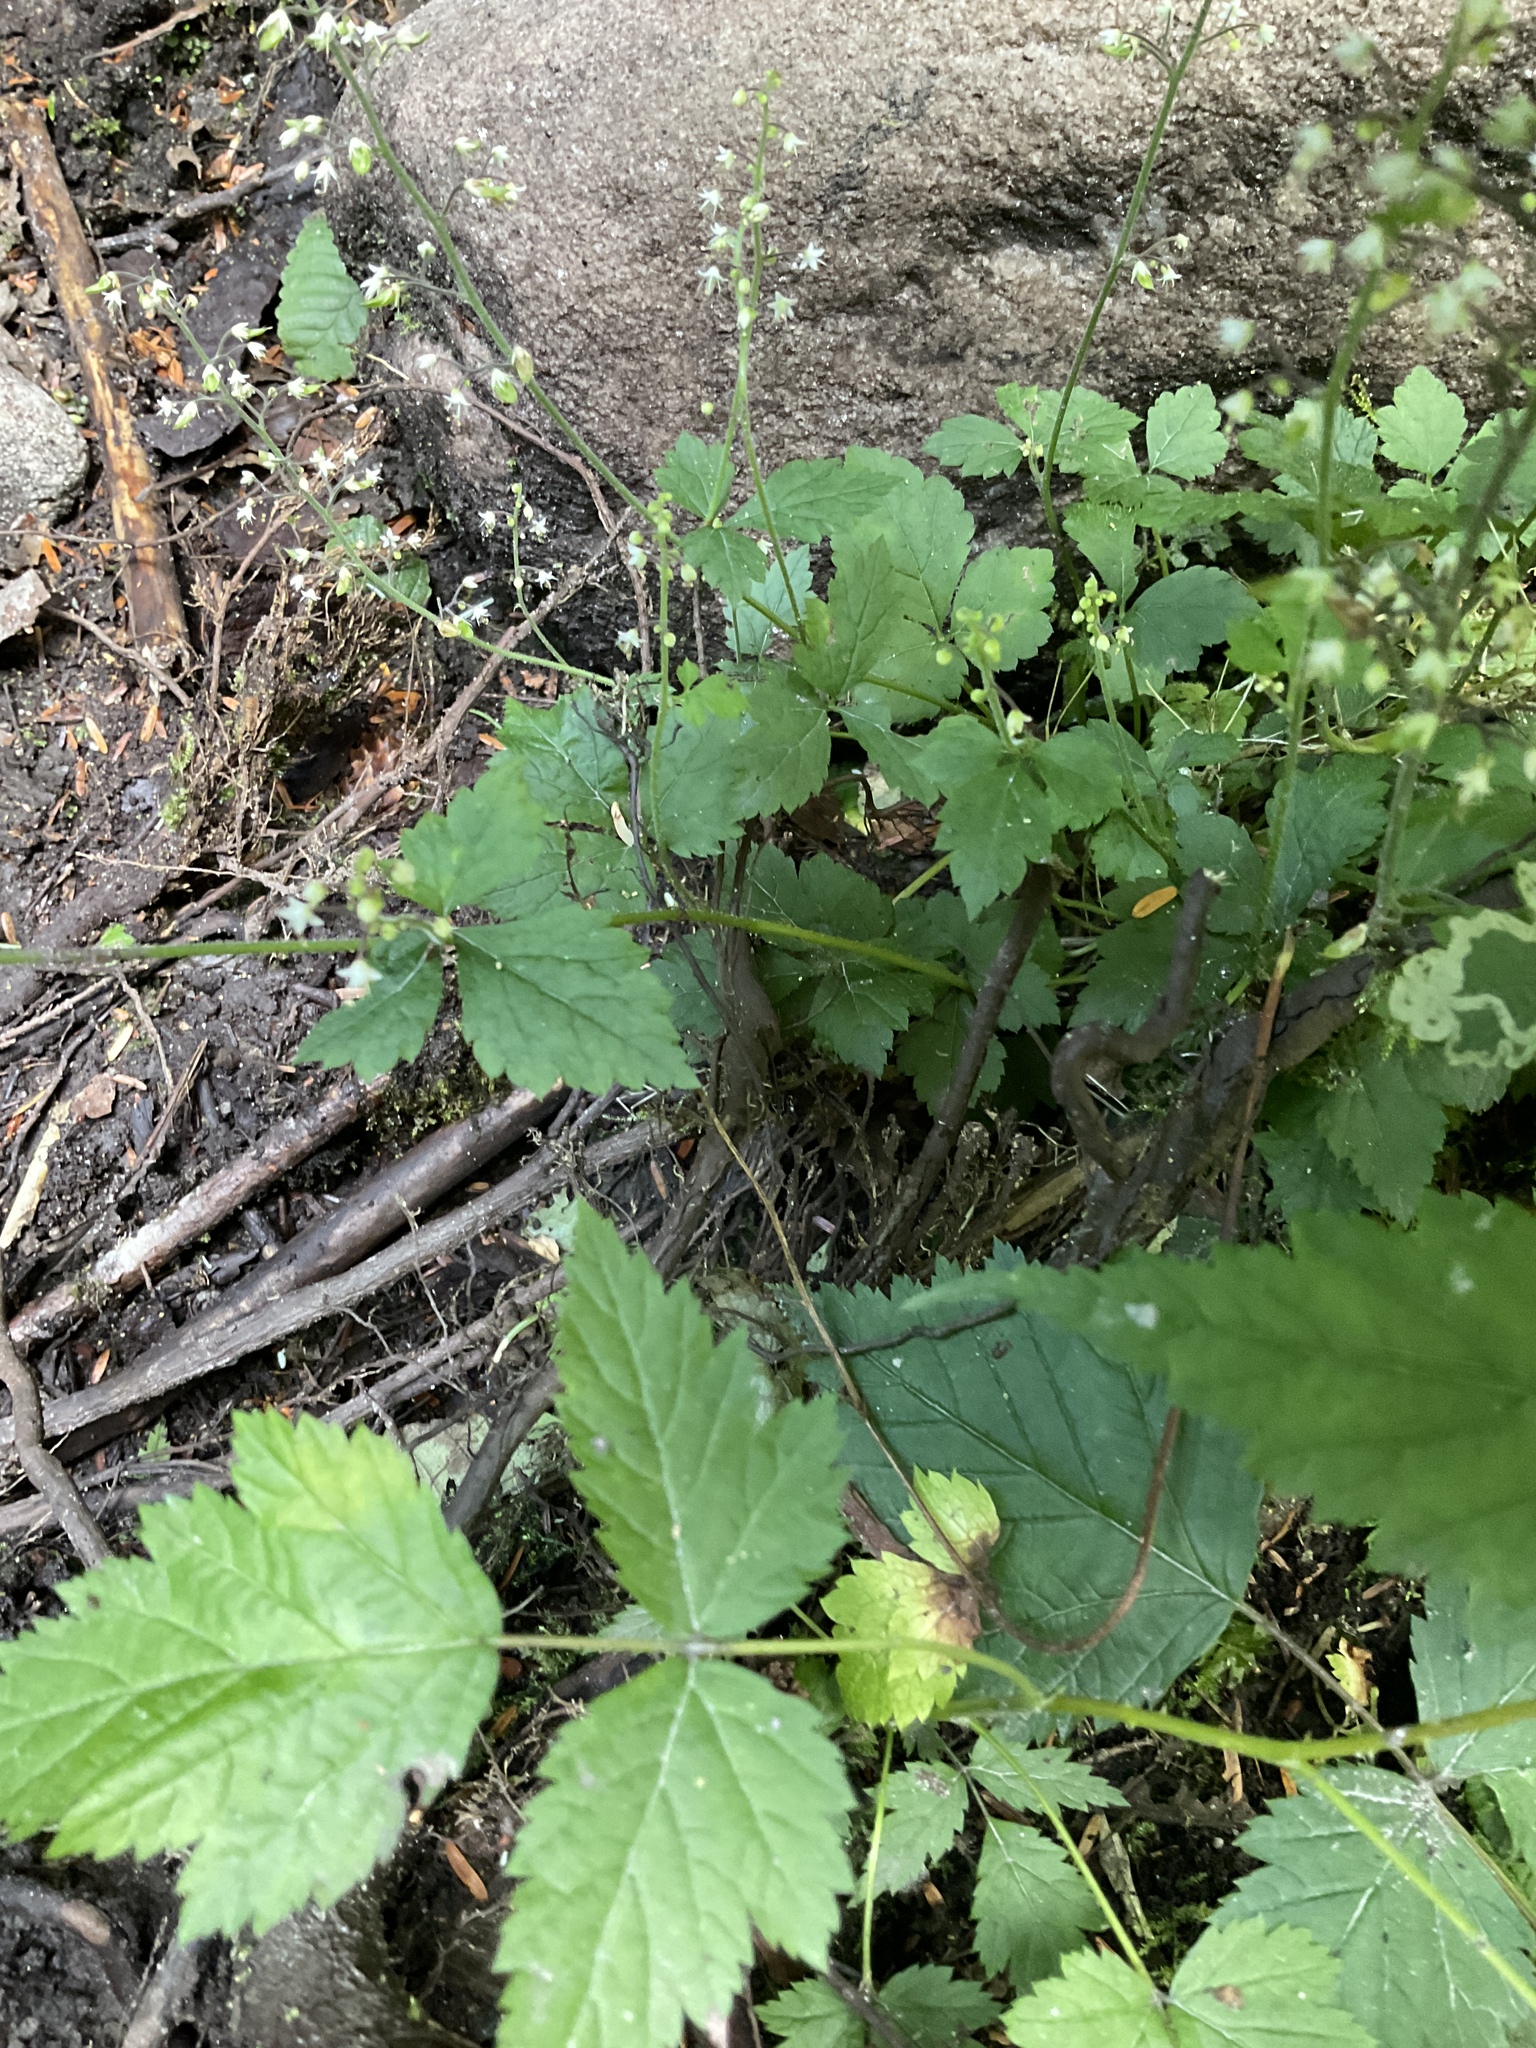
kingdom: Plantae
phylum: Tracheophyta
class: Magnoliopsida
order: Saxifragales
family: Saxifragaceae
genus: Tiarella
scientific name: Tiarella trifoliata
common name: Sugar-scoop
